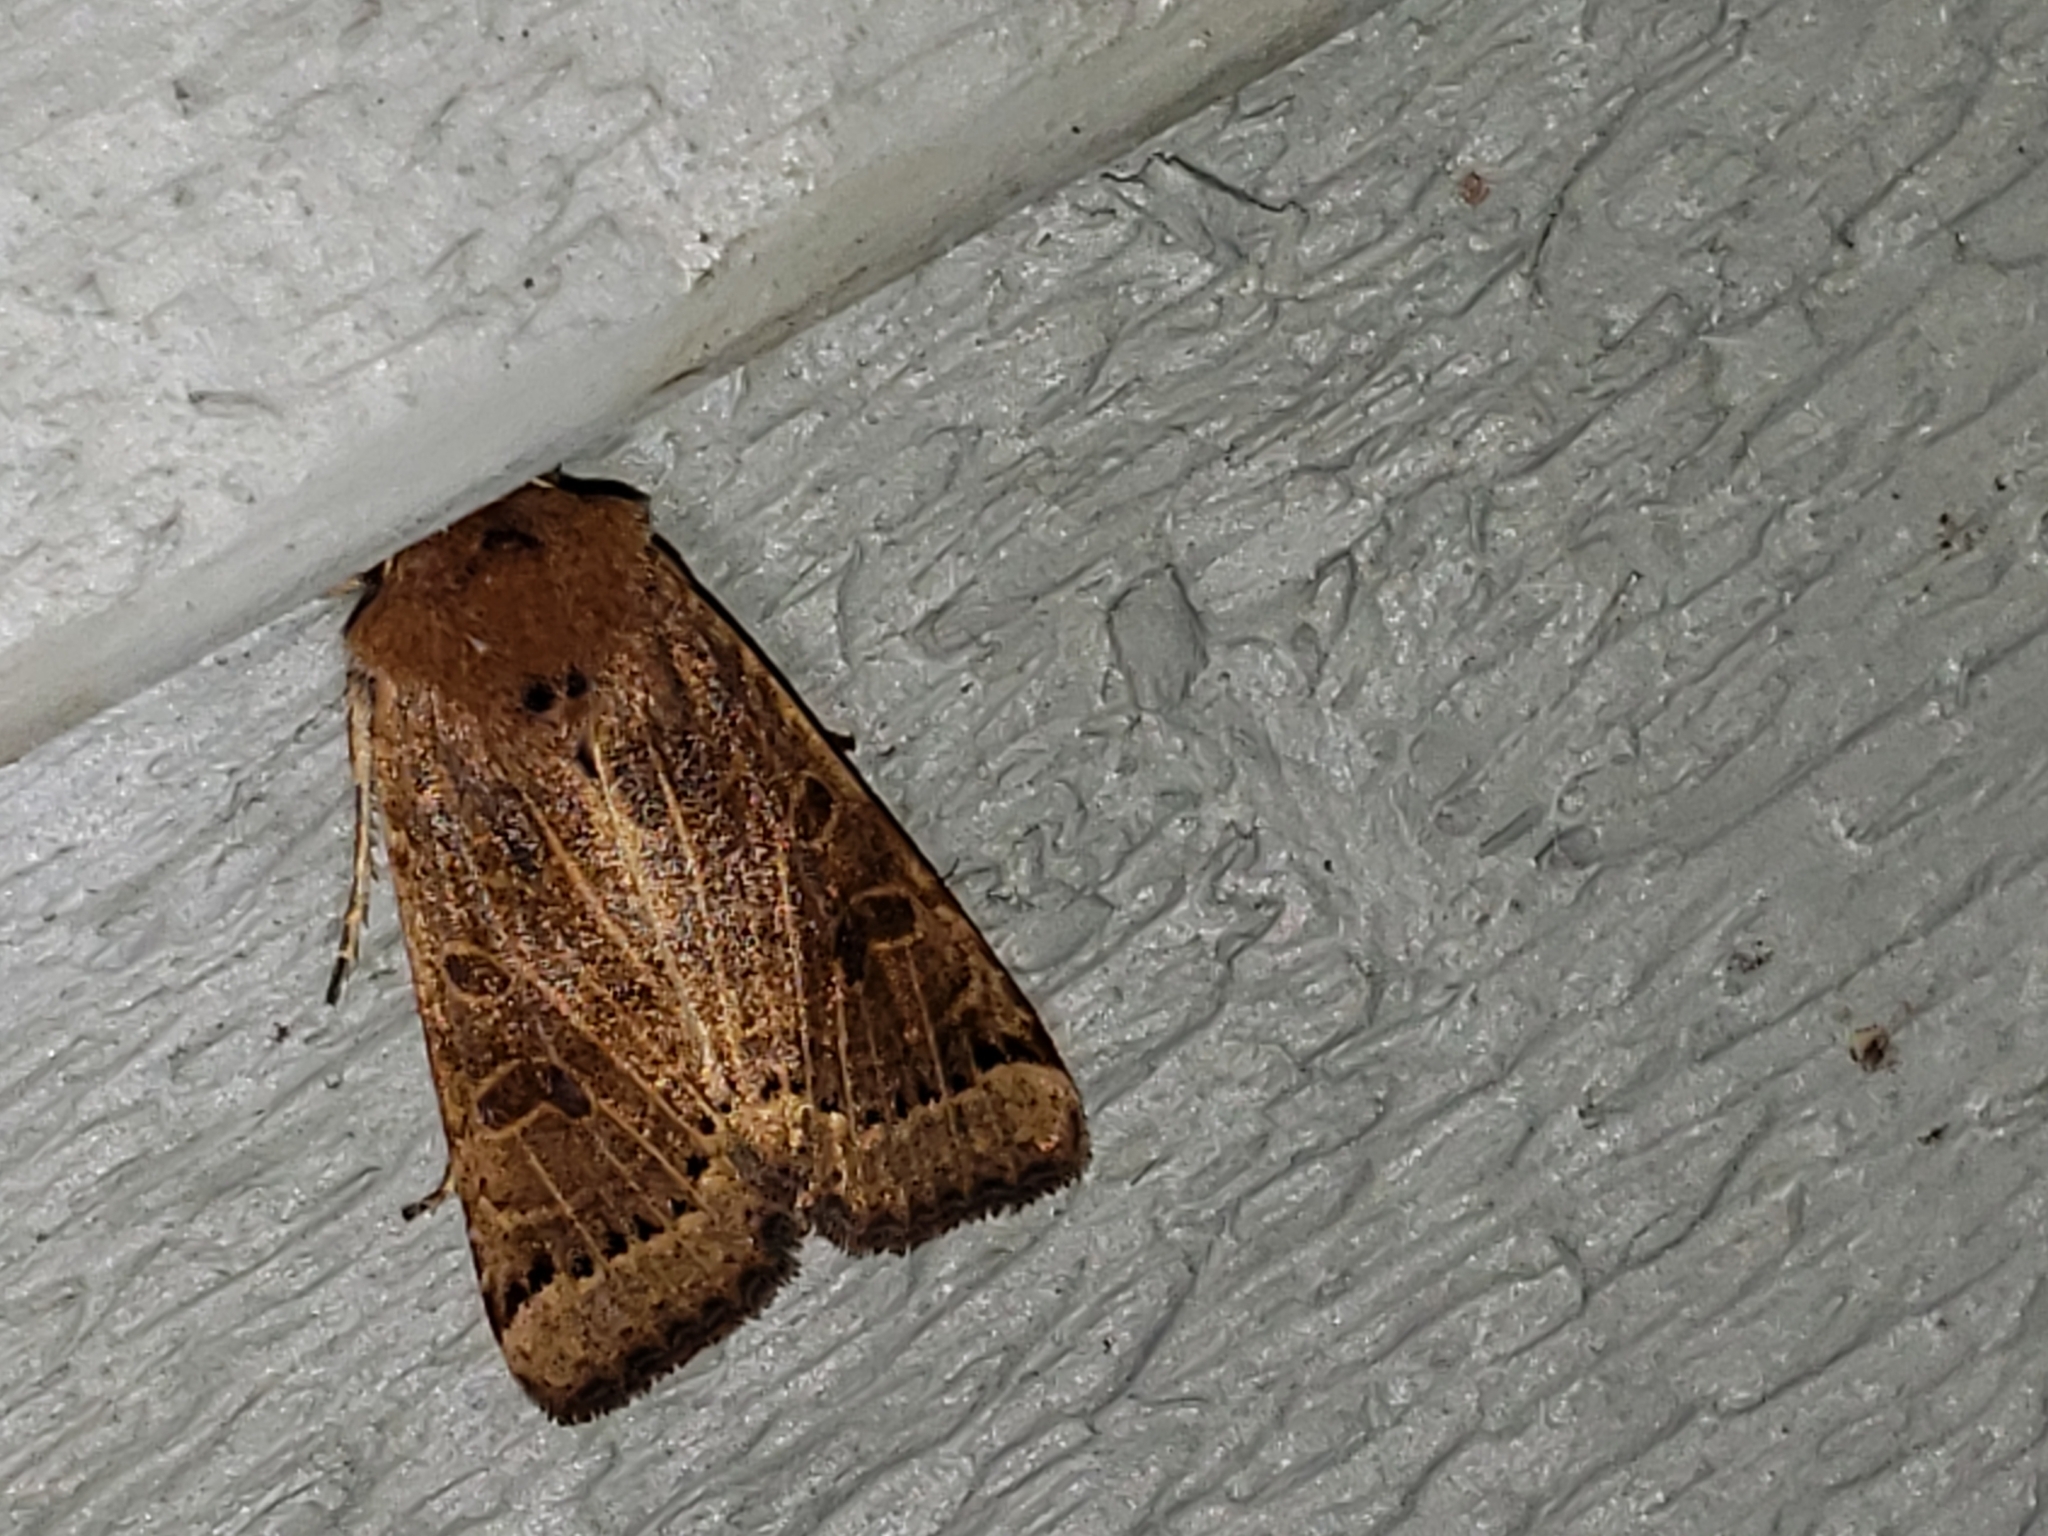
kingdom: Animalia
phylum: Arthropoda
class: Insecta
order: Lepidoptera
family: Noctuidae
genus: Agrochola
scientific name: Agrochola lunosa
